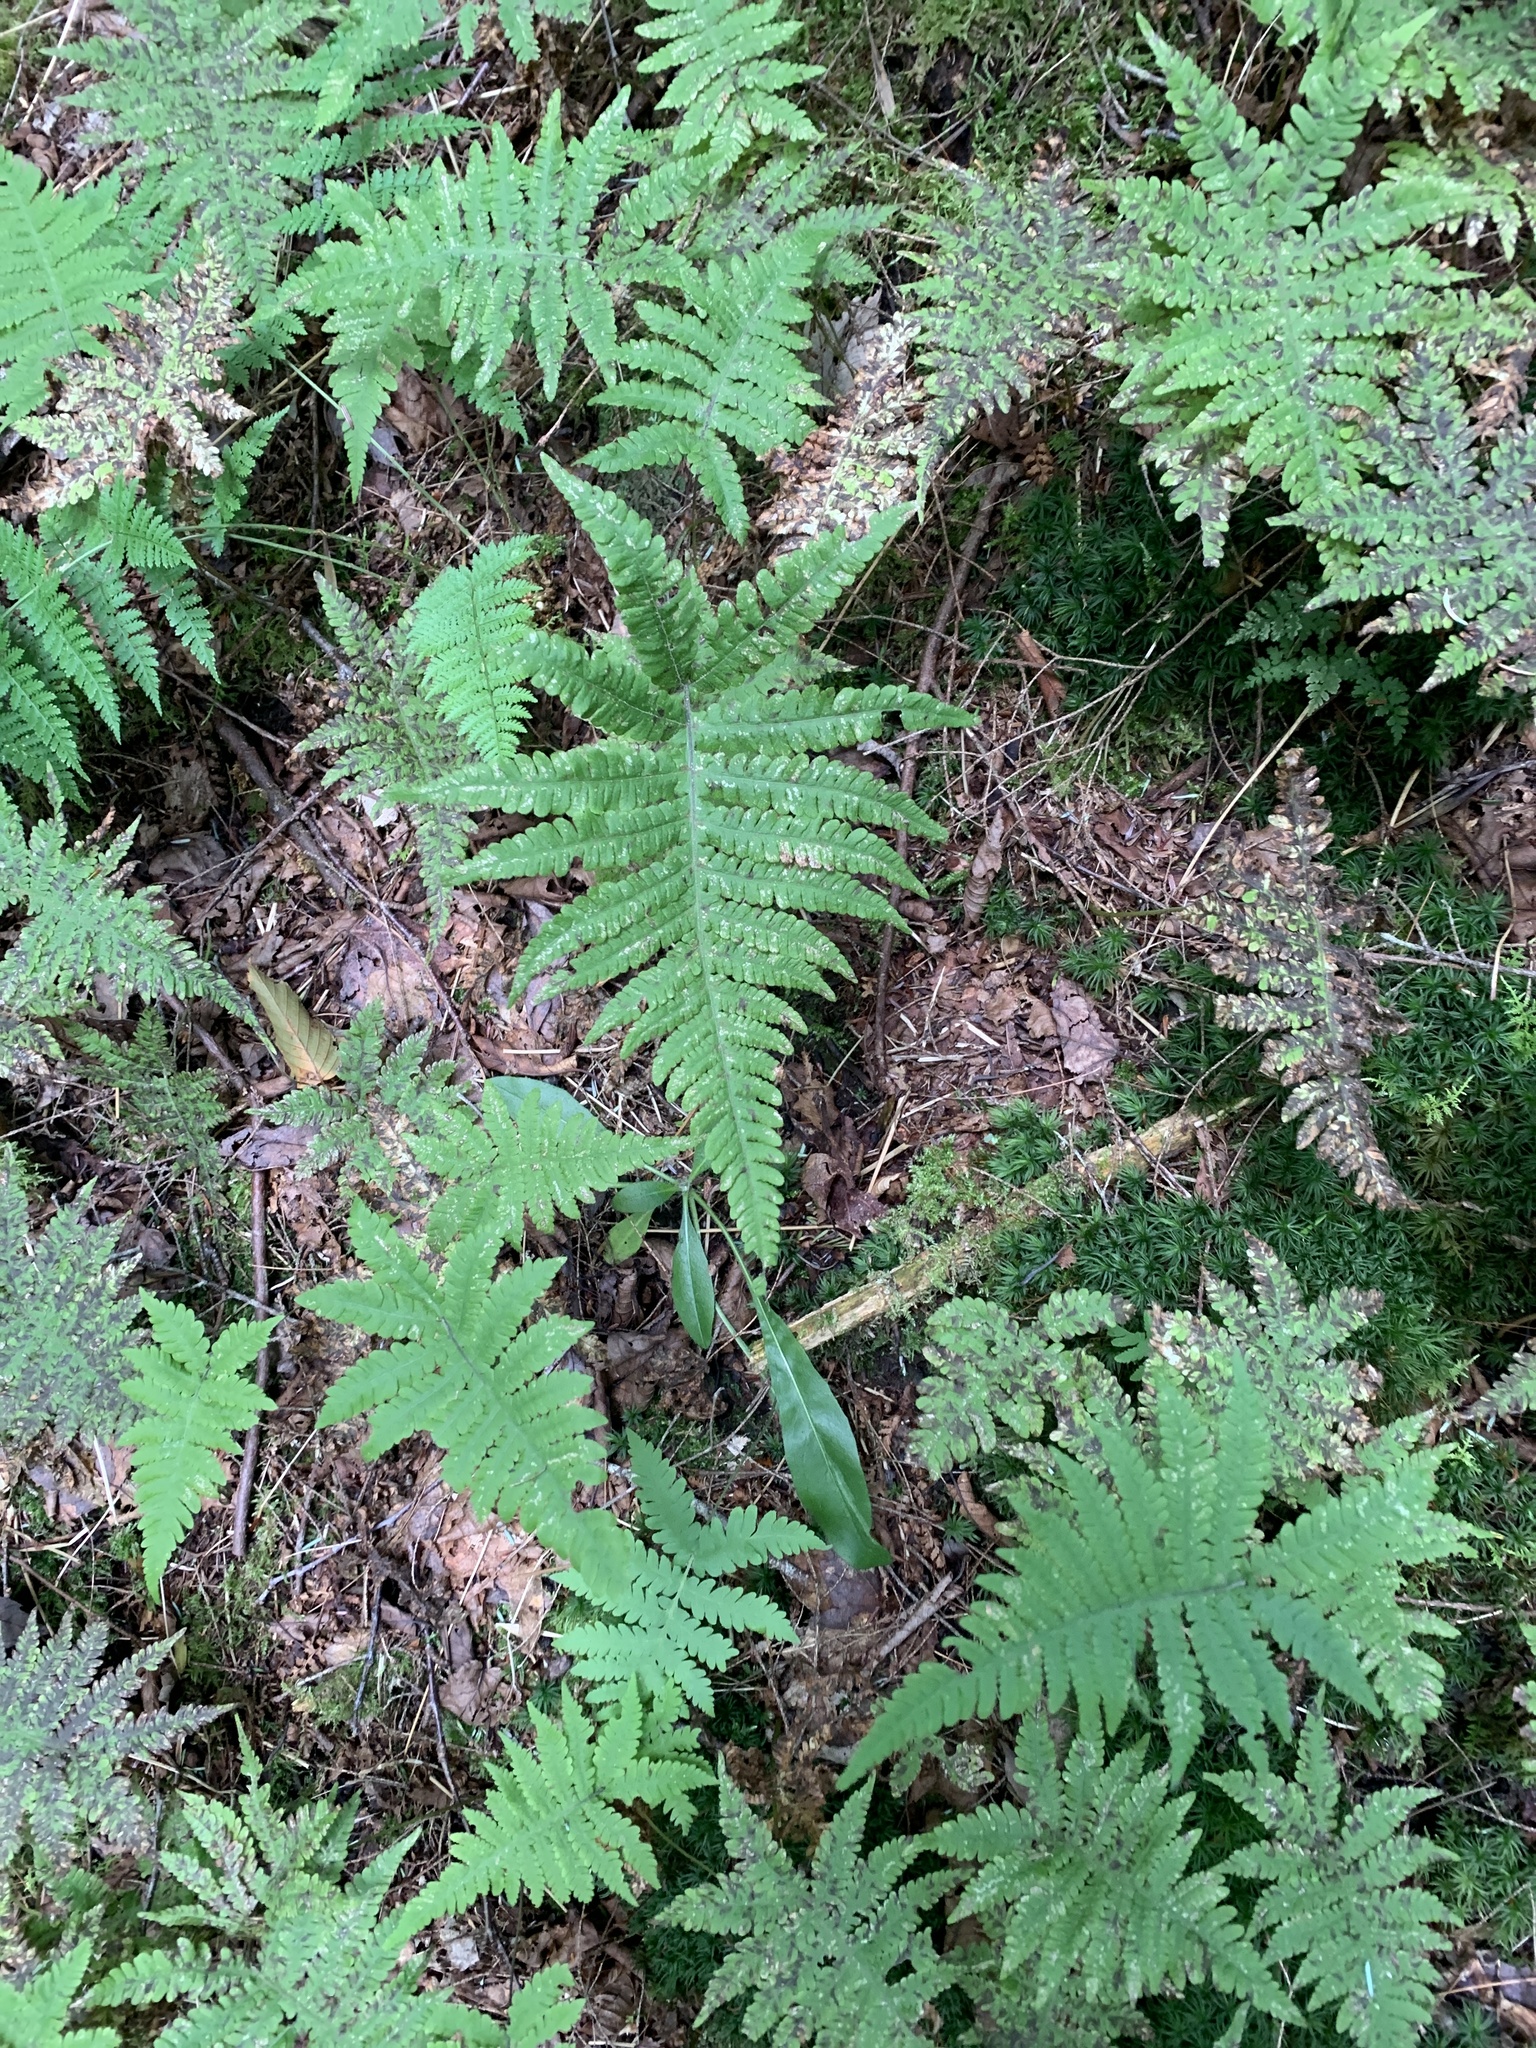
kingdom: Plantae
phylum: Tracheophyta
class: Polypodiopsida
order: Polypodiales
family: Thelypteridaceae
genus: Phegopteris
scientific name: Phegopteris connectilis
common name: Beech fern
